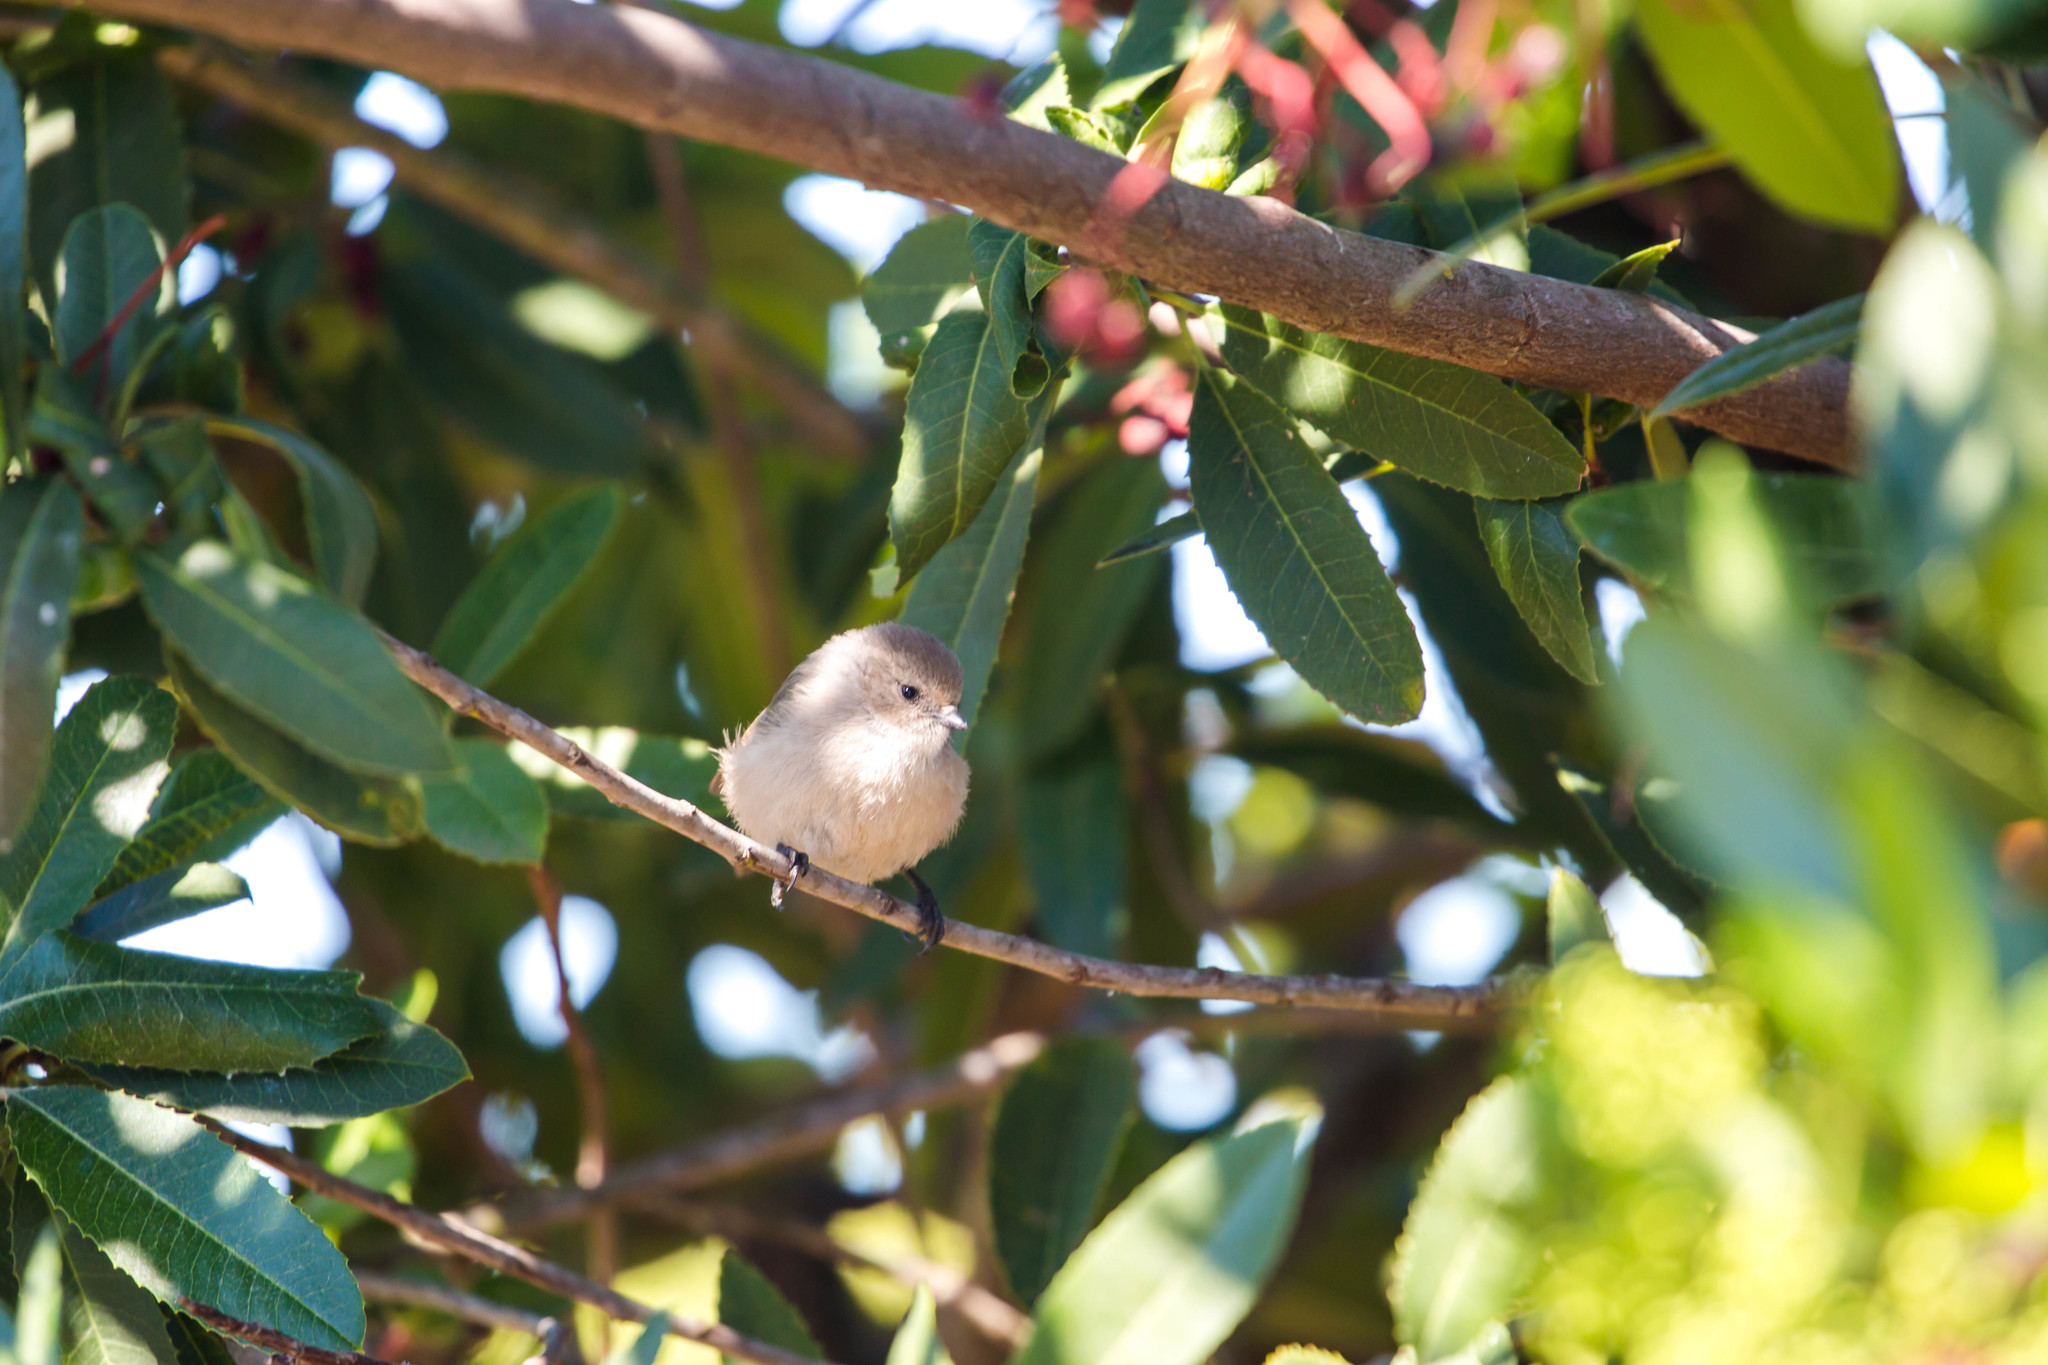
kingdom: Animalia
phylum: Chordata
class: Aves
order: Passeriformes
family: Aegithalidae
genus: Psaltriparus
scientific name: Psaltriparus minimus
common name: American bushtit
